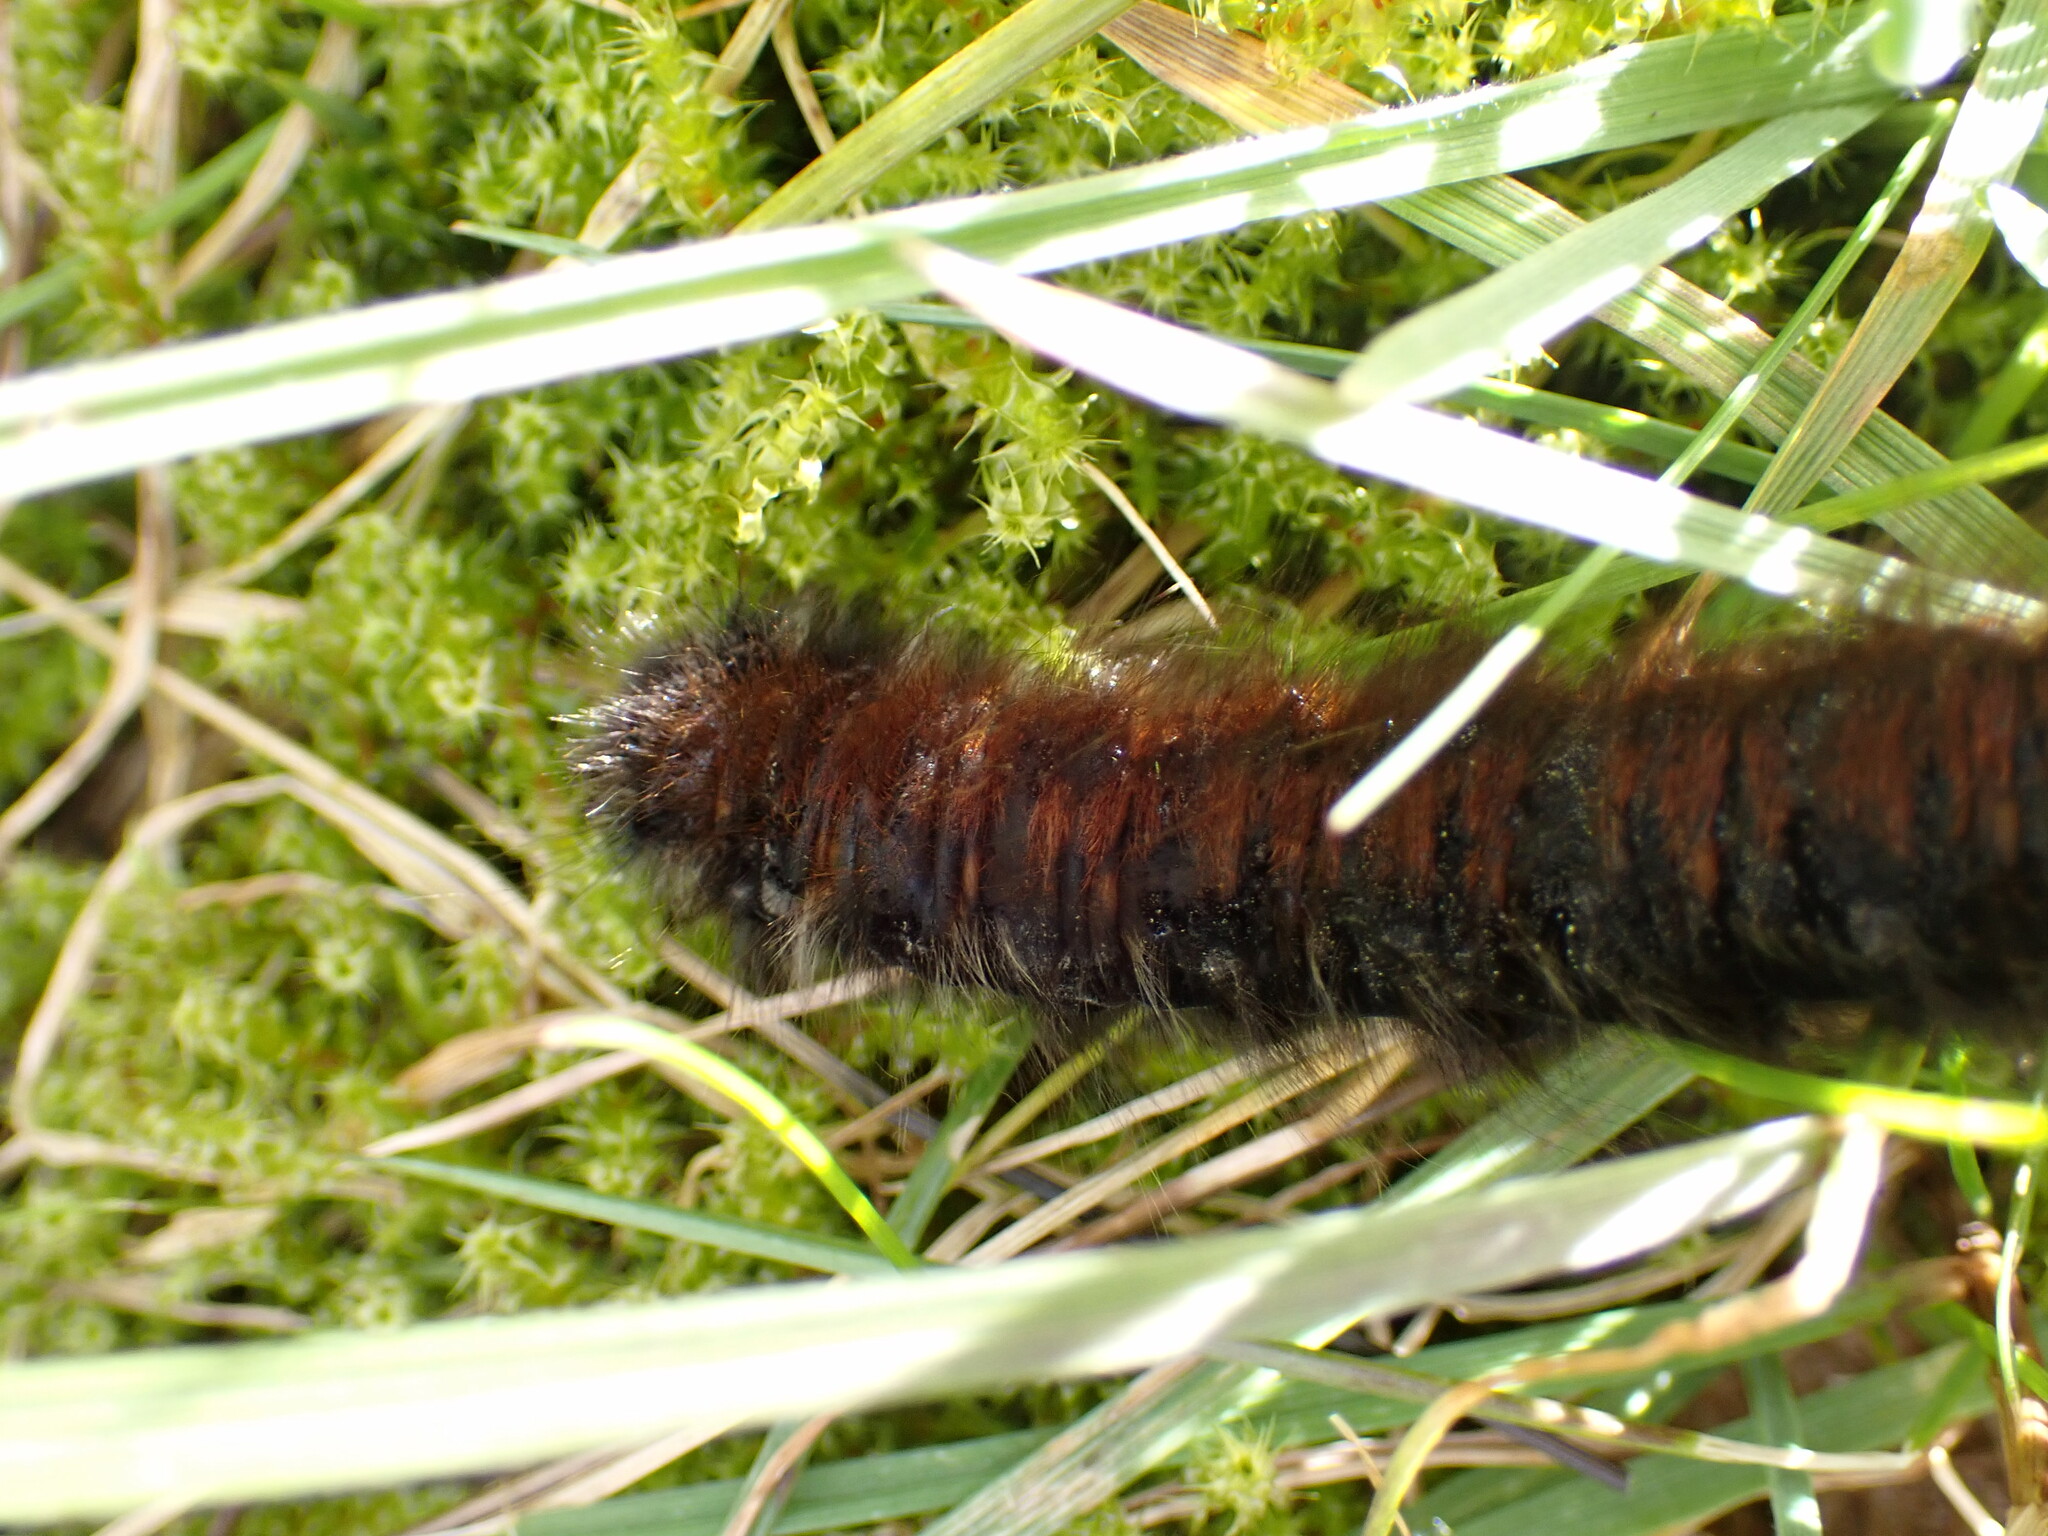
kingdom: Animalia
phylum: Arthropoda
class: Insecta
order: Lepidoptera
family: Lasiocampidae
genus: Macrothylacia
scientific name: Macrothylacia rubi
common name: Fox moth
